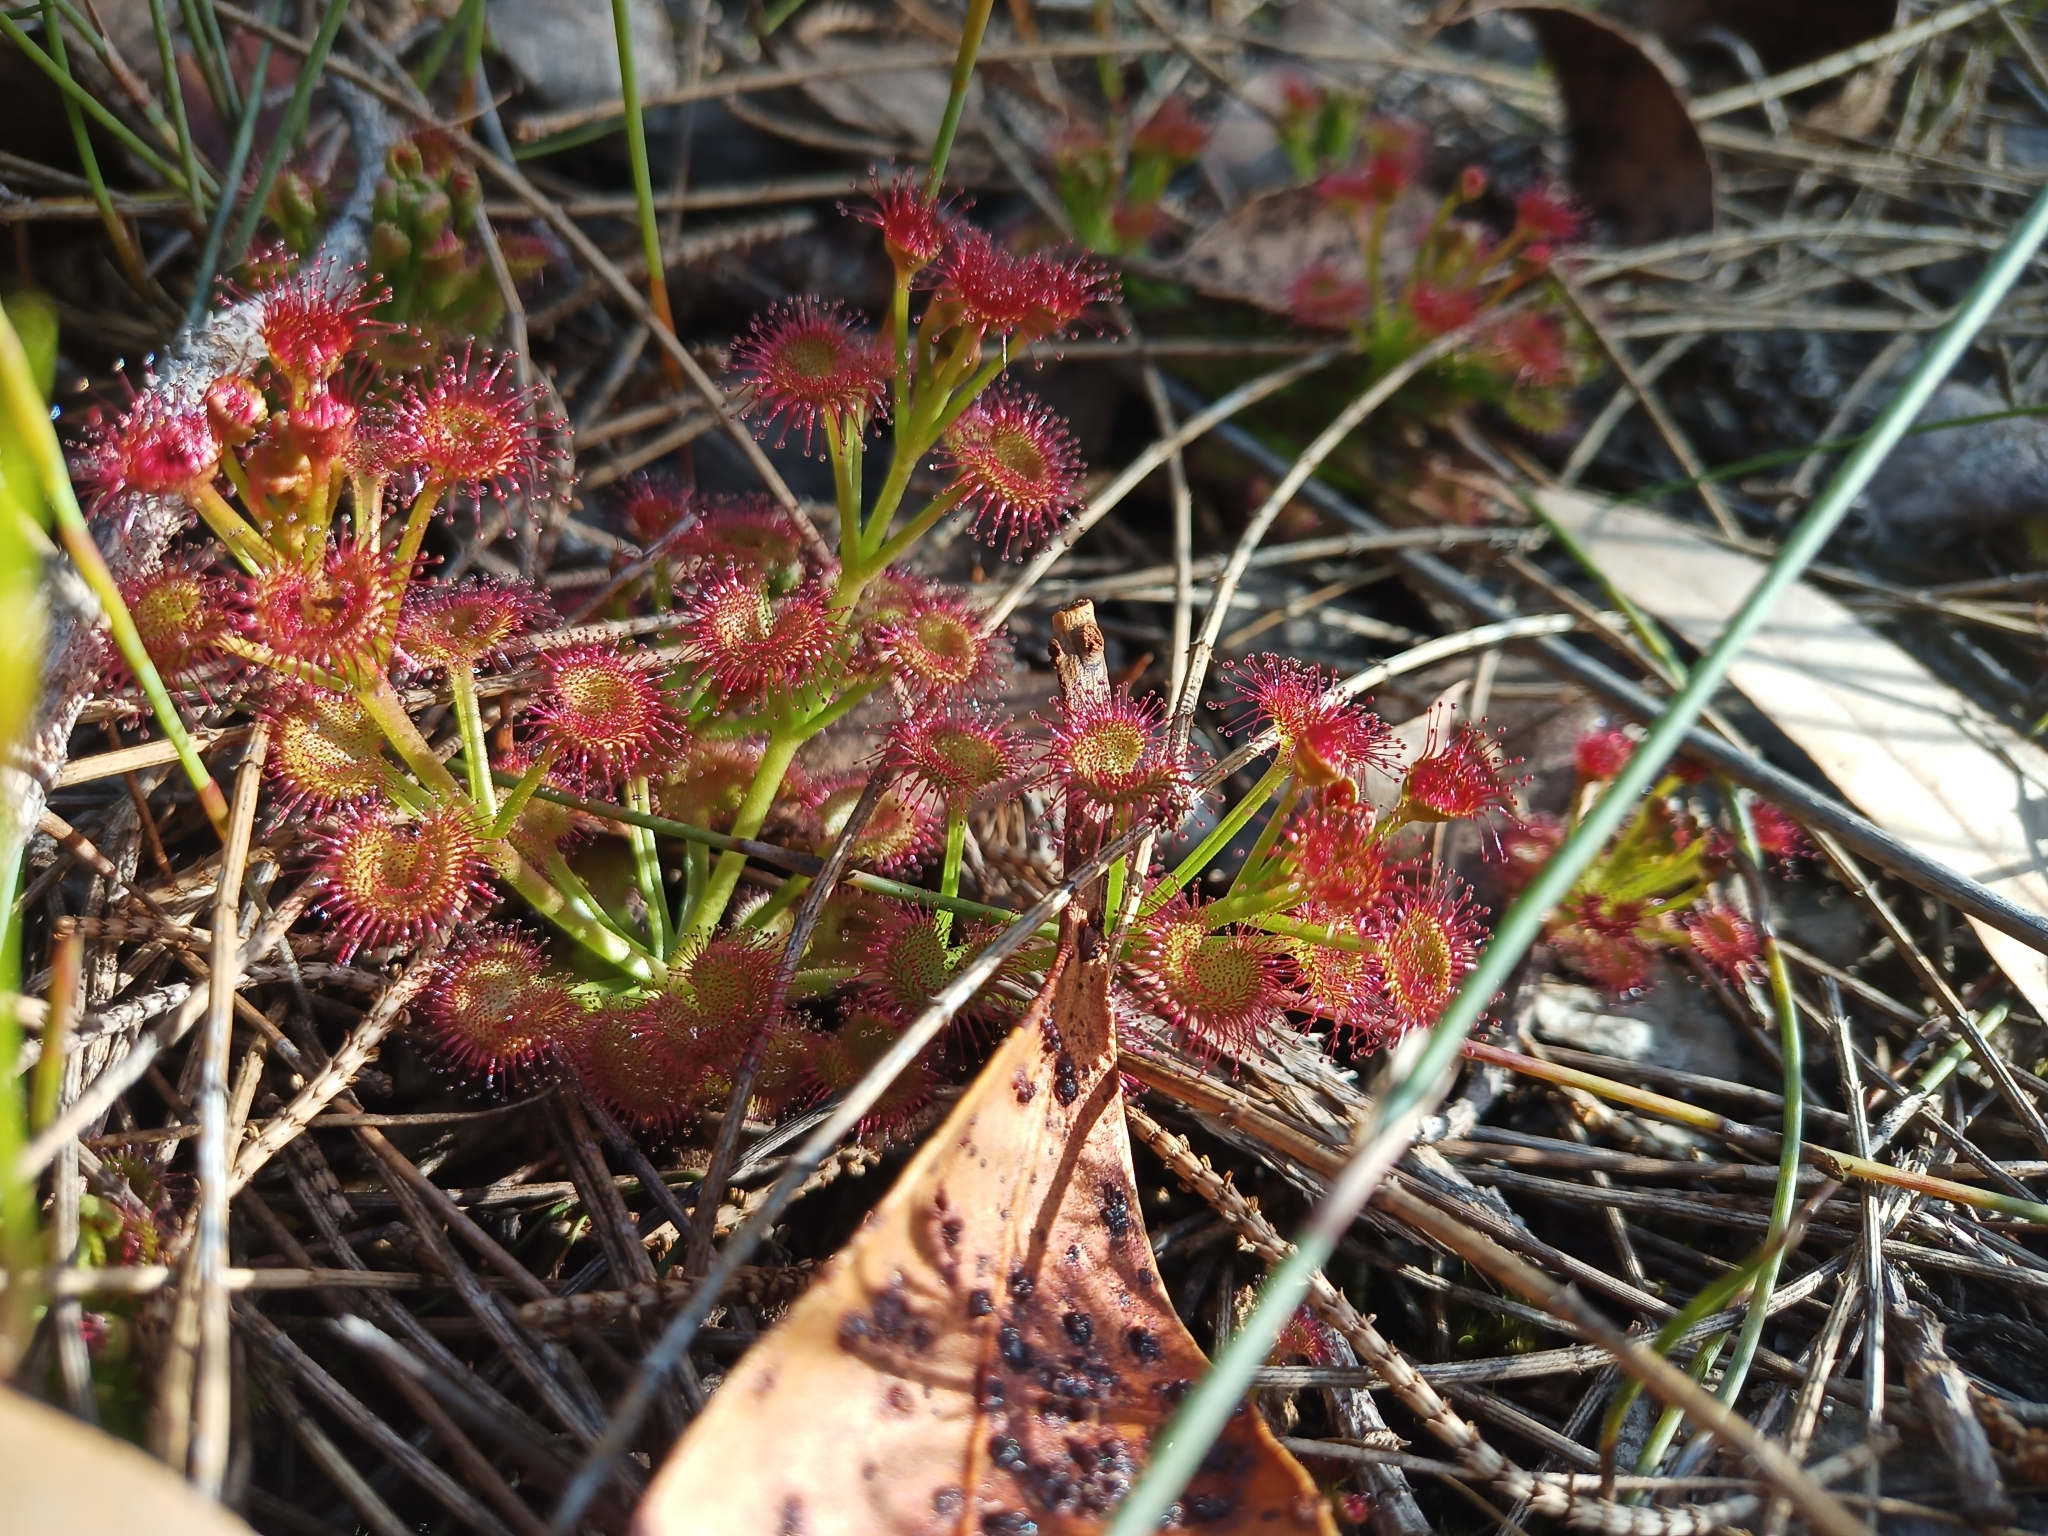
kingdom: Plantae
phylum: Tracheophyta
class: Magnoliopsida
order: Caryophyllales
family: Droseraceae
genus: Drosera
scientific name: Drosera stolonifera
